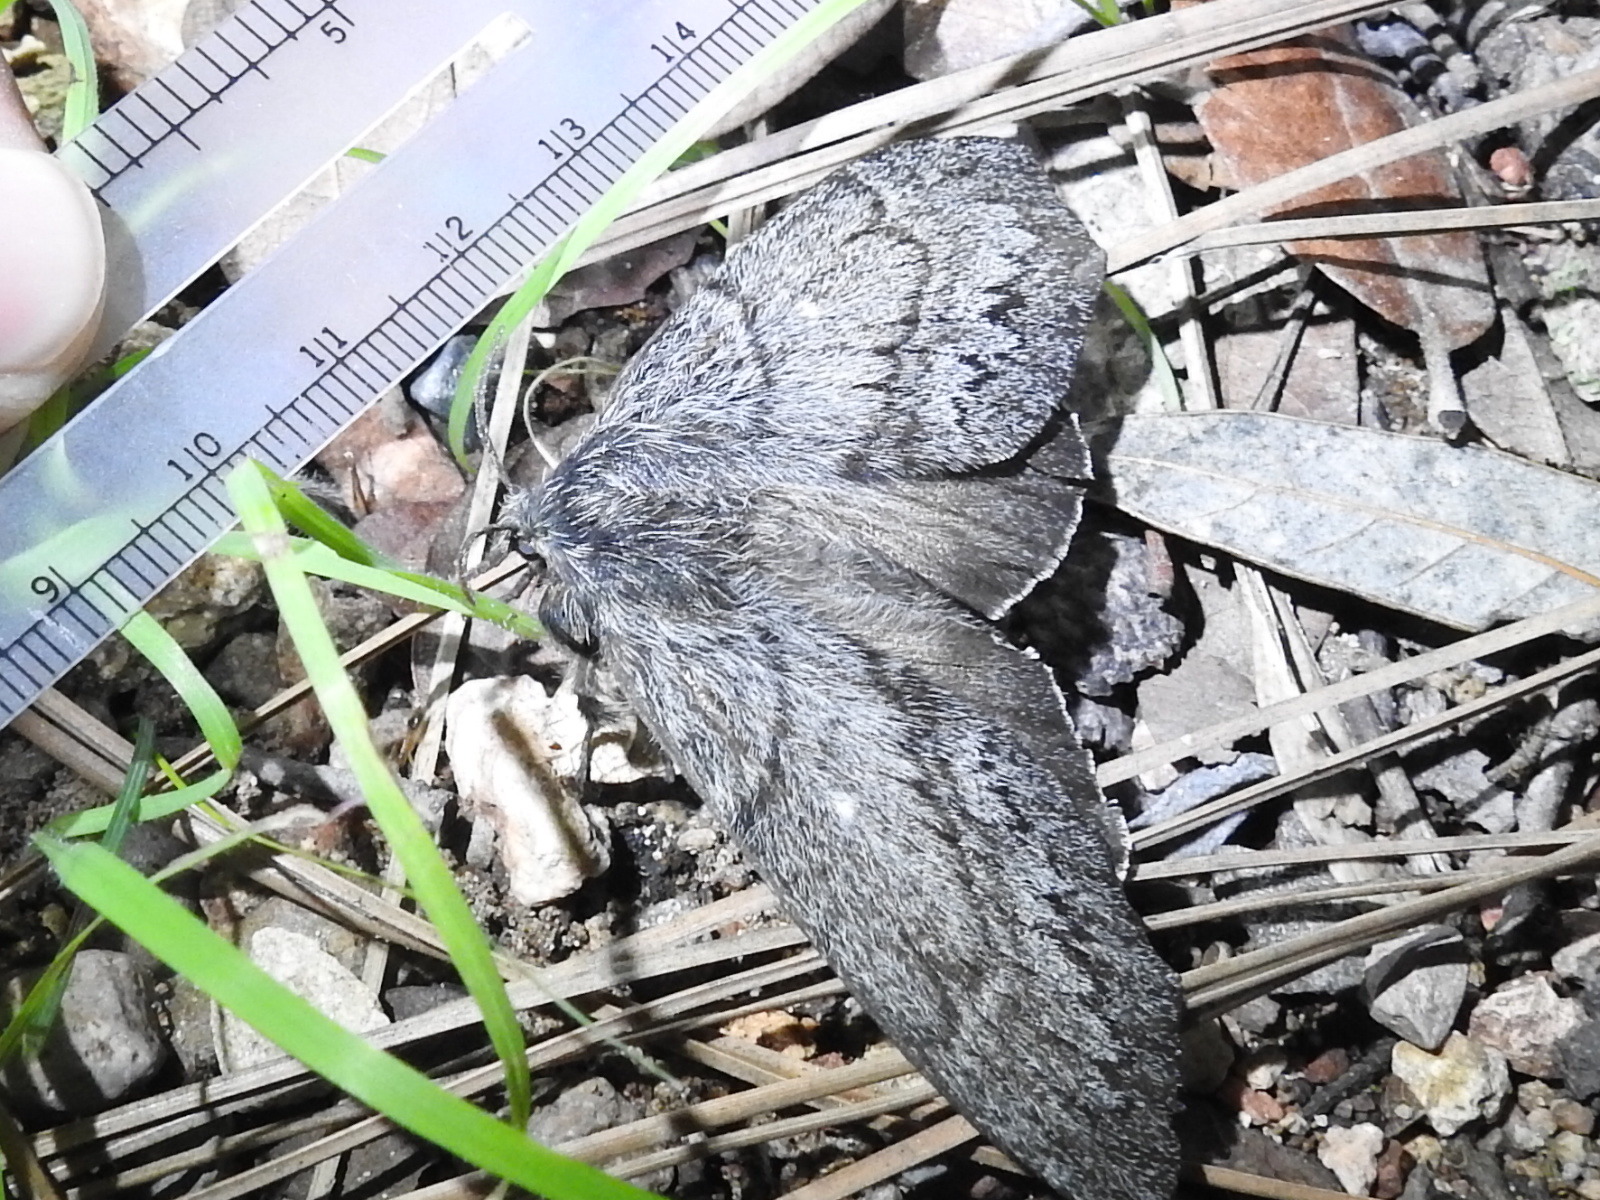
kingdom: Animalia
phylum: Arthropoda
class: Insecta
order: Lepidoptera
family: Lasiocampidae
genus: Gloveria
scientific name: Gloveria arizonensis
